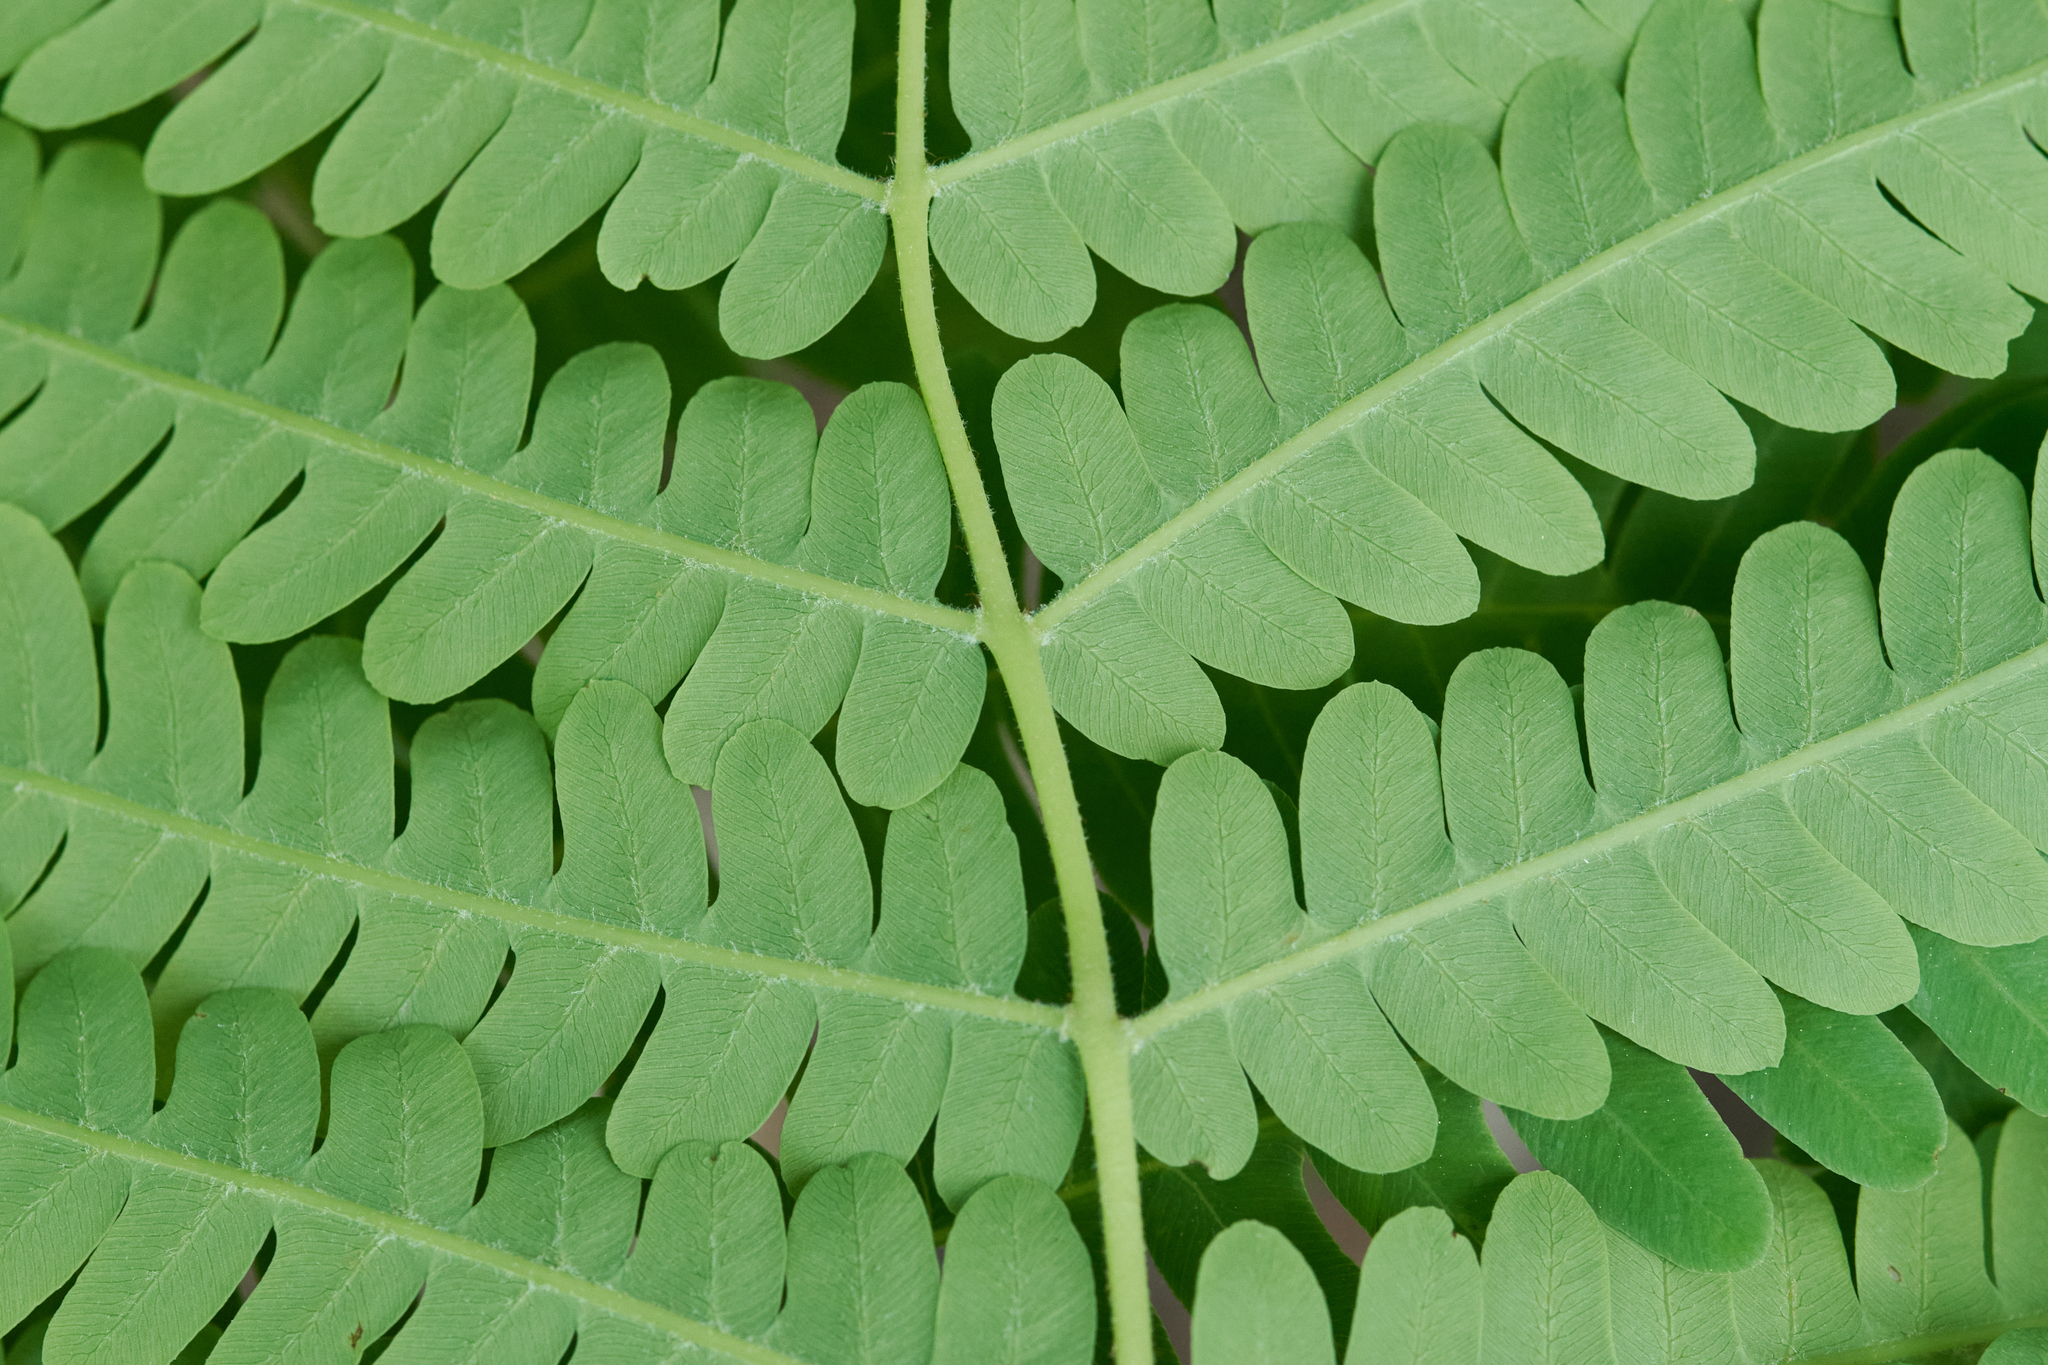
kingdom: Plantae
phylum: Tracheophyta
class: Polypodiopsida
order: Osmundales
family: Osmundaceae
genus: Claytosmunda
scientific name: Claytosmunda claytoniana
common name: Clayton's fern
